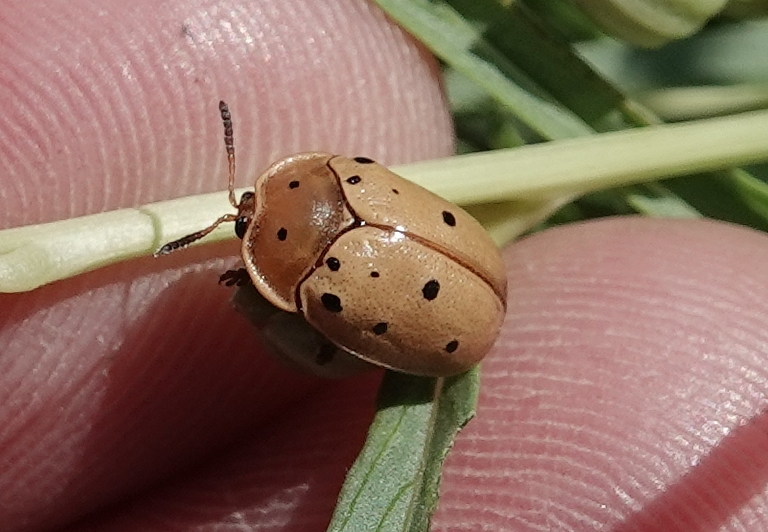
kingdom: Animalia
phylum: Arthropoda
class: Insecta
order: Coleoptera
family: Chrysomelidae
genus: Chelymorpha
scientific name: Chelymorpha cassidea
